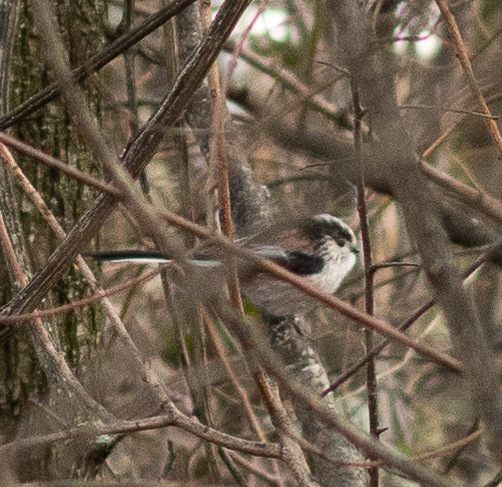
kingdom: Animalia
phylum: Chordata
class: Aves
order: Passeriformes
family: Aegithalidae
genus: Aegithalos
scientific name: Aegithalos caudatus
